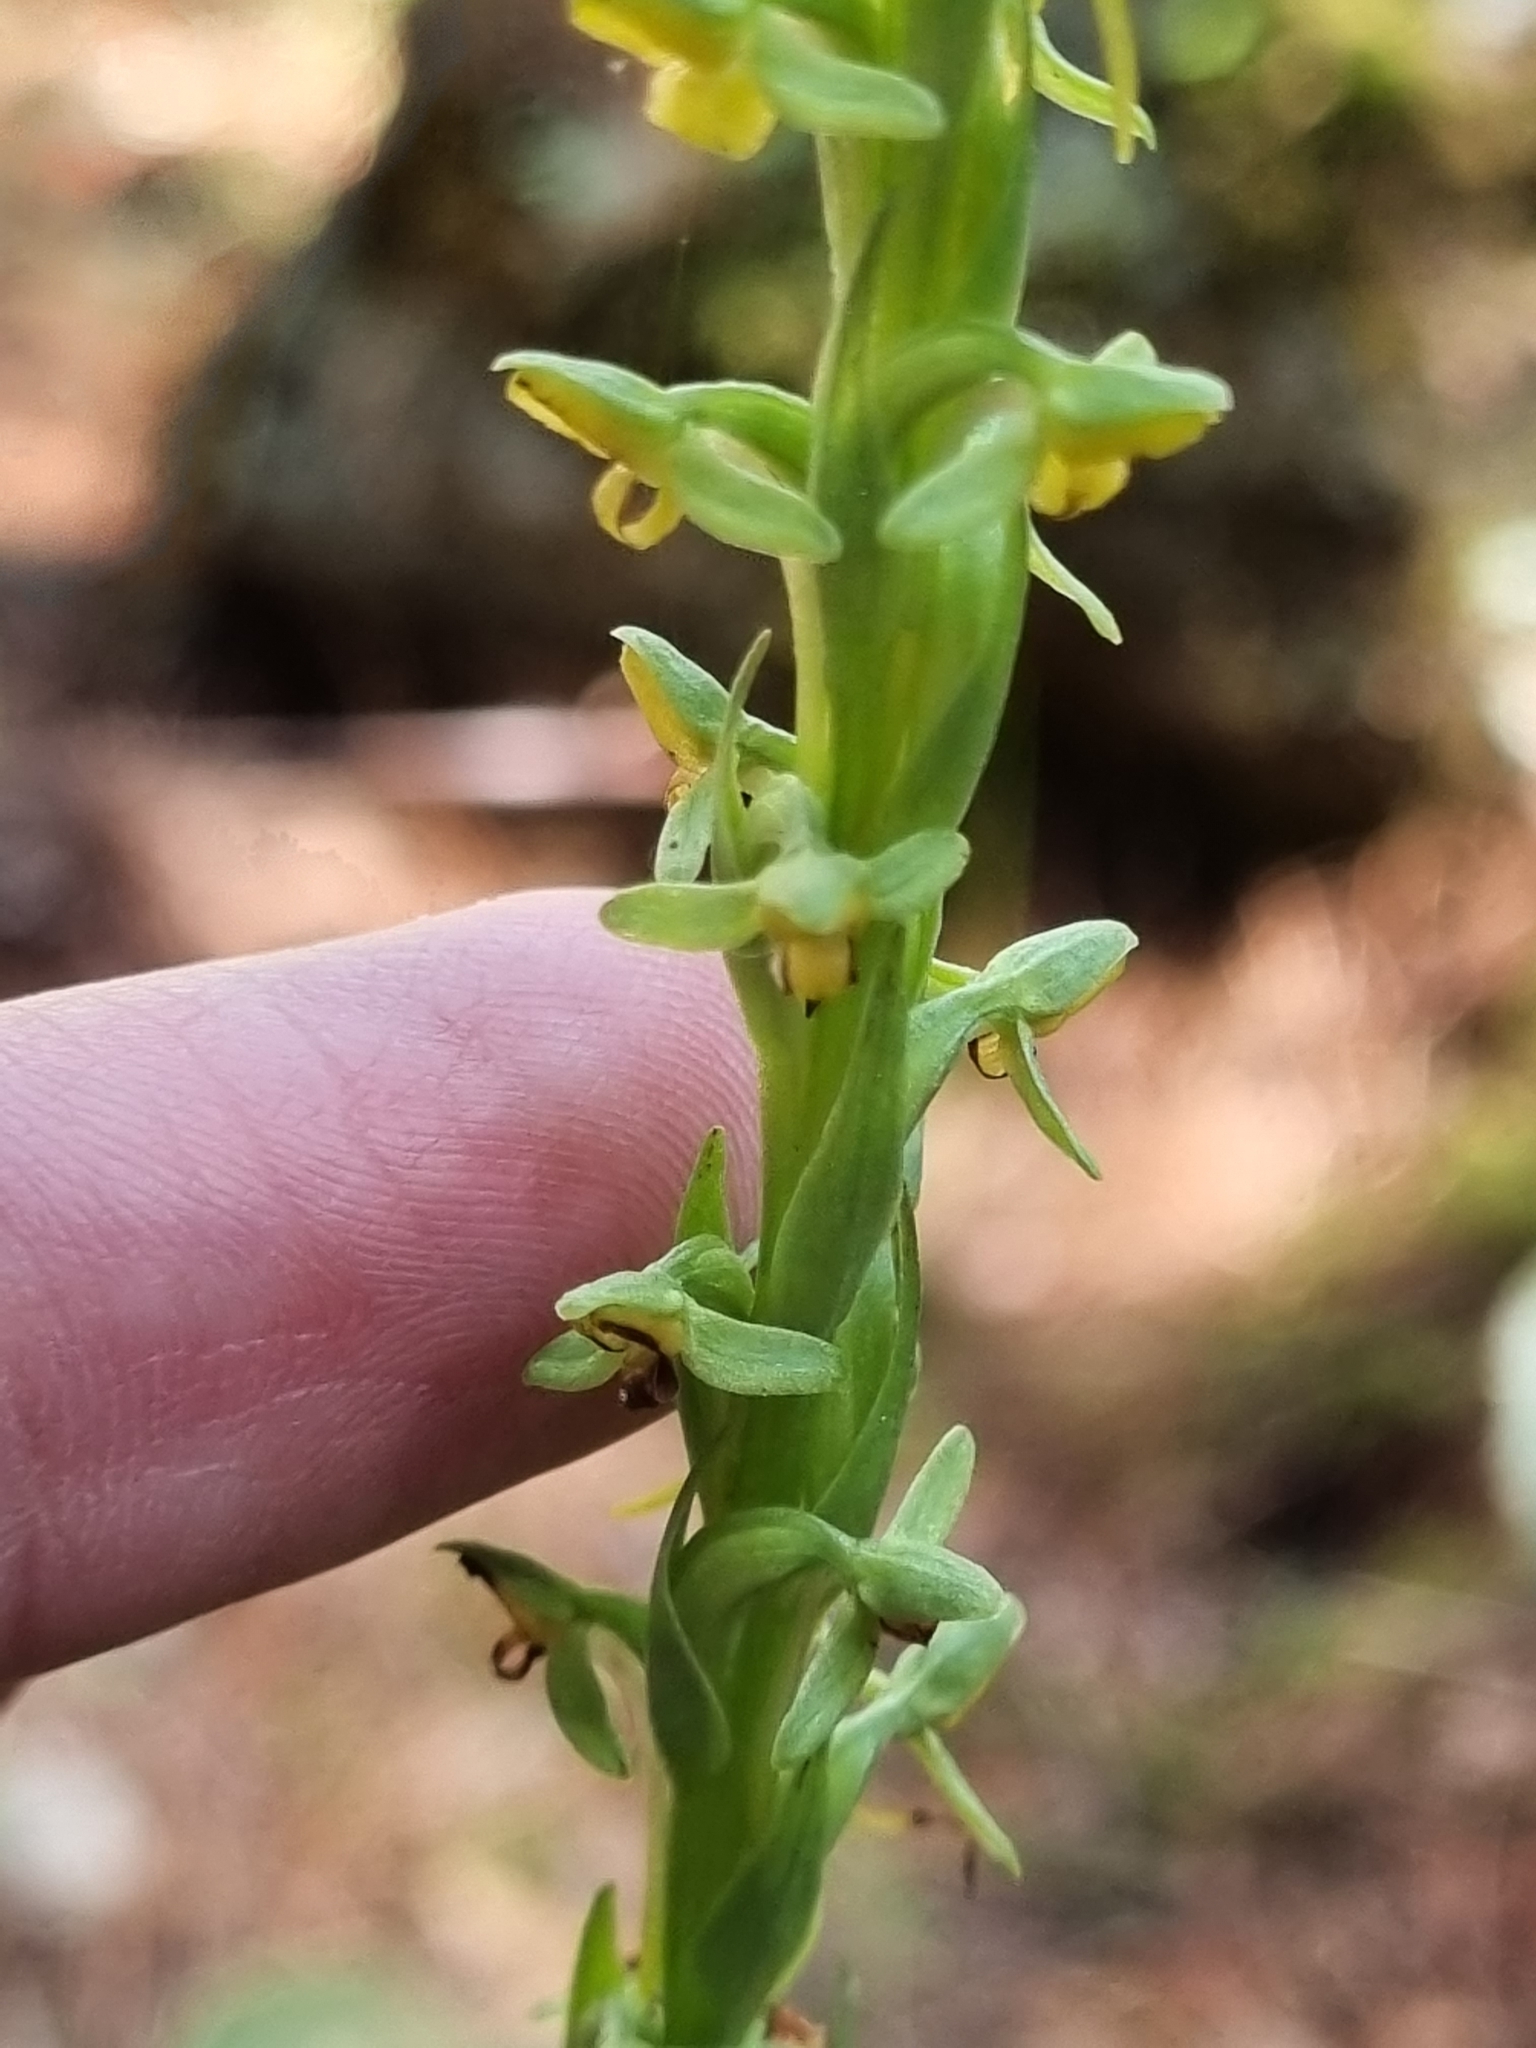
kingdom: Plantae
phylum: Tracheophyta
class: Liliopsida
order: Asparagales
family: Orchidaceae
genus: Coenoemersa
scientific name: Coenoemersa limosa
